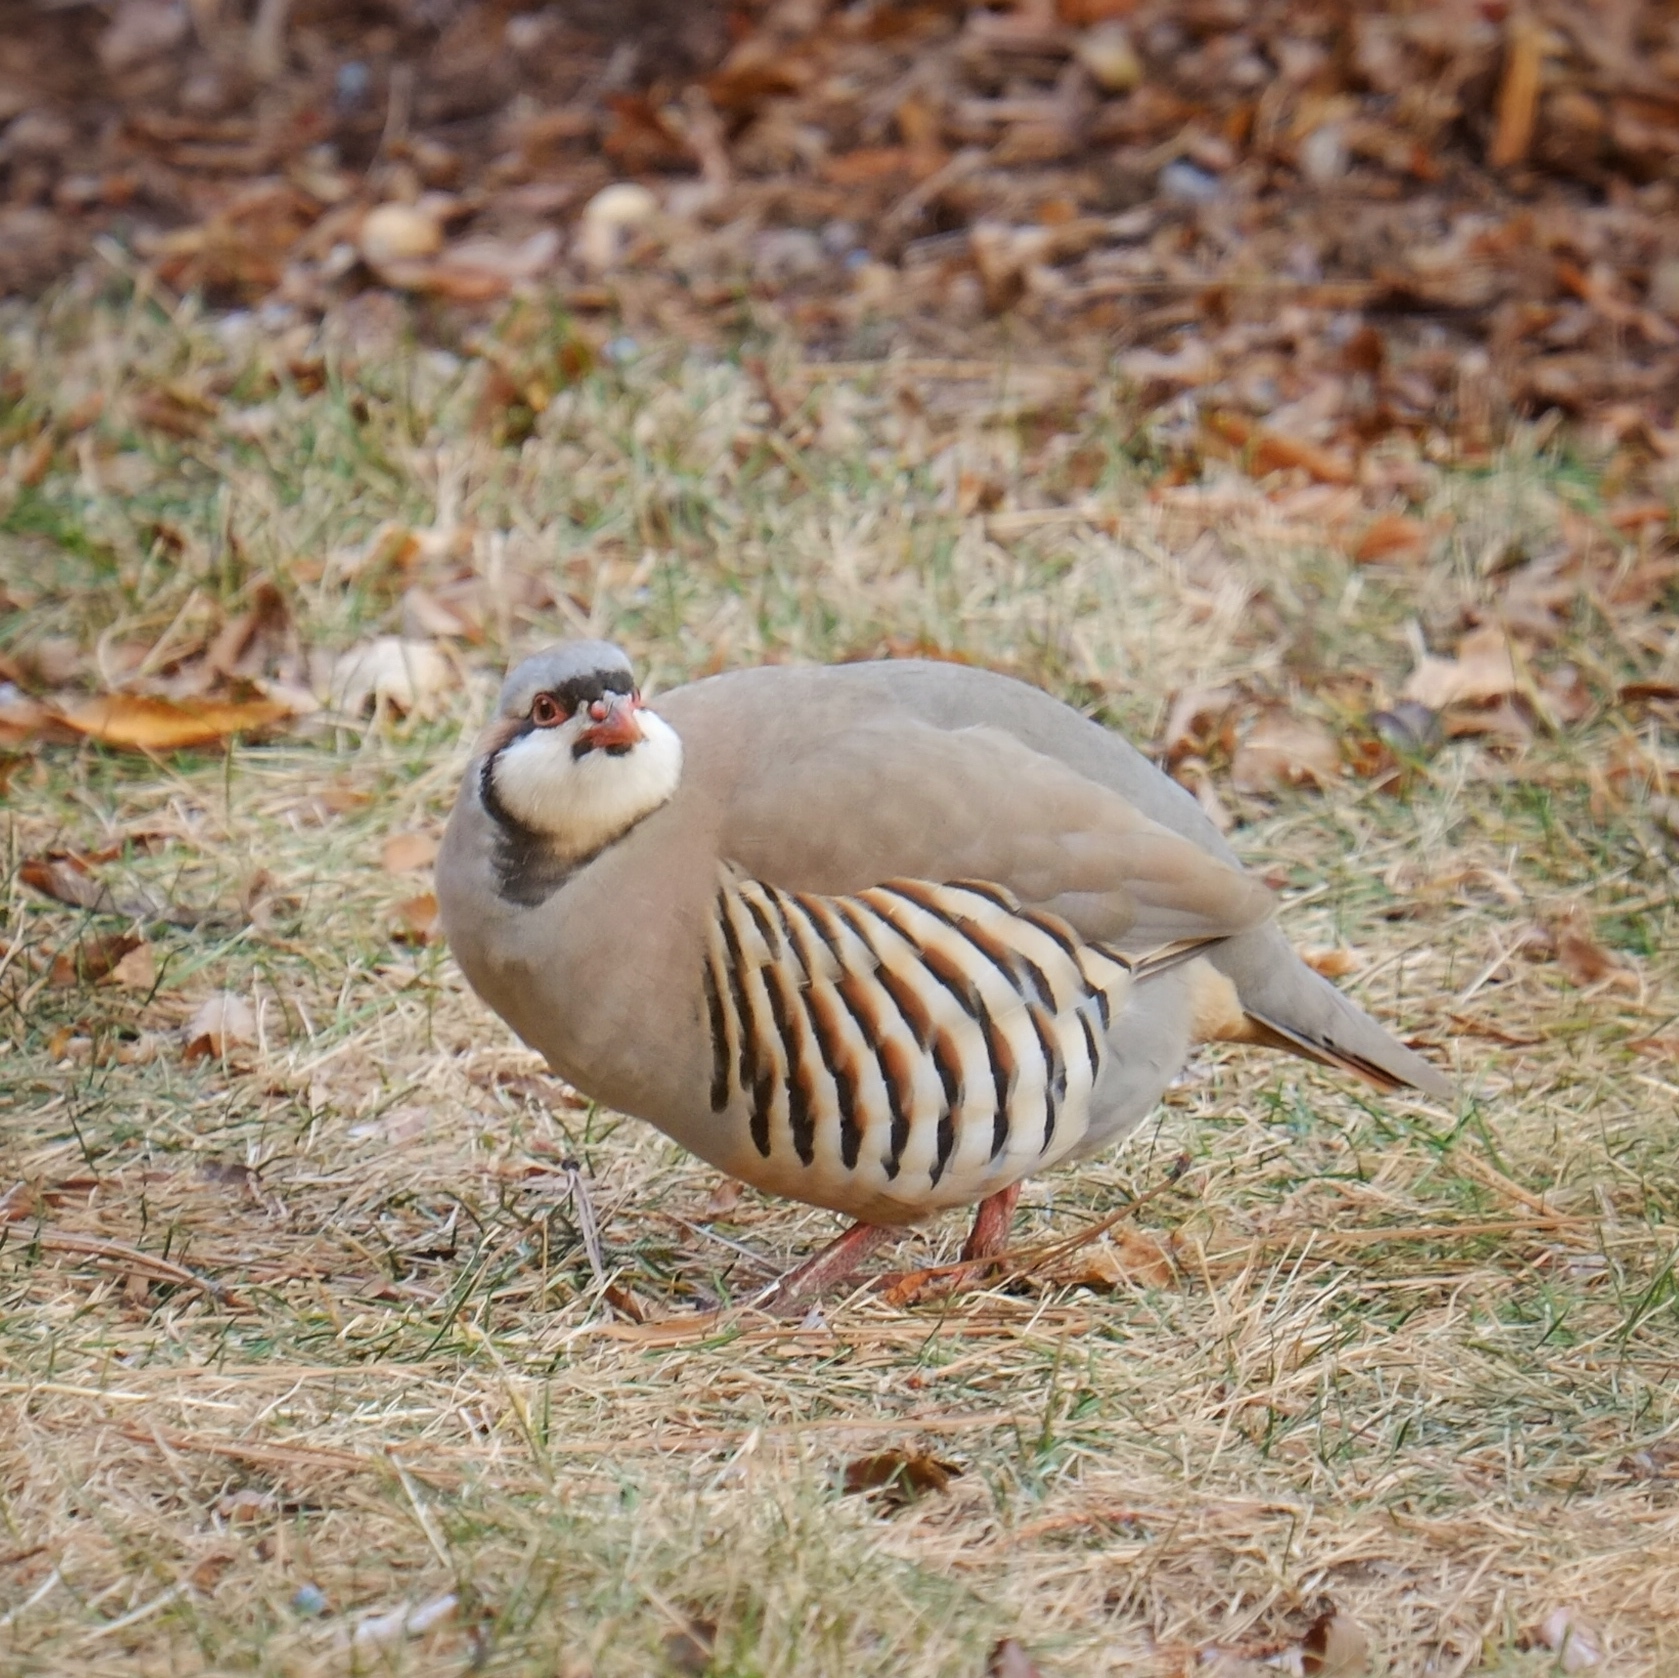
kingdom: Animalia
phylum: Chordata
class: Aves
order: Galliformes
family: Phasianidae
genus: Alectoris
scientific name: Alectoris chukar
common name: Chukar
